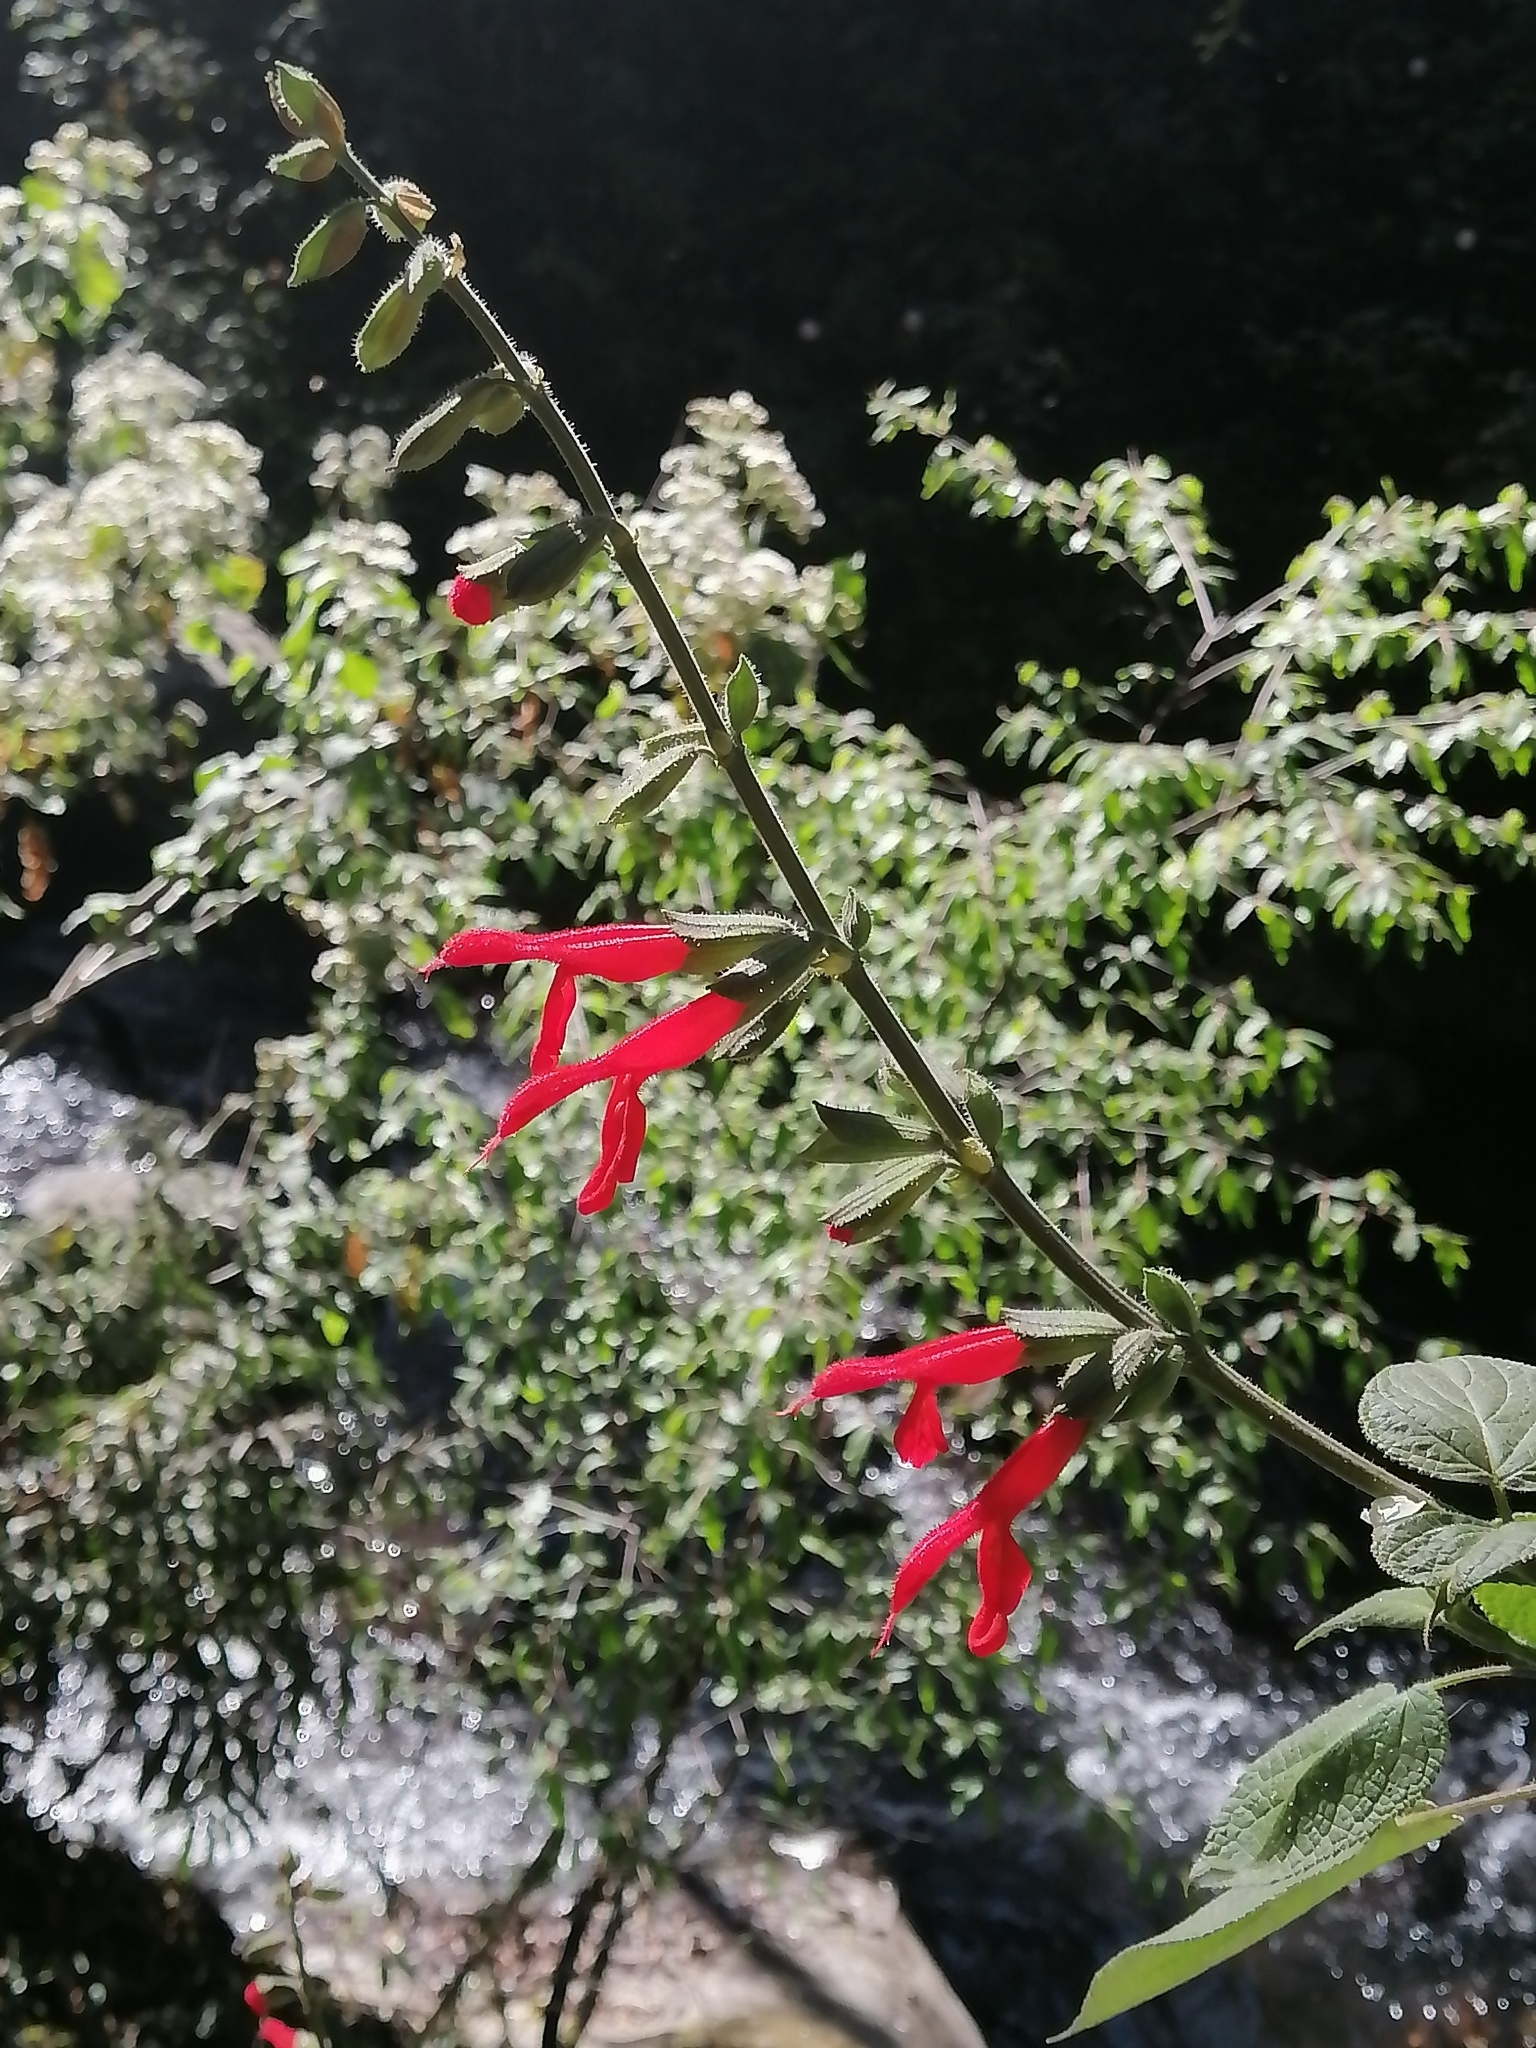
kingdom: Plantae
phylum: Tracheophyta
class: Magnoliopsida
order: Lamiales
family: Lamiaceae
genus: Salvia
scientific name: Salvia gesneriiflora
